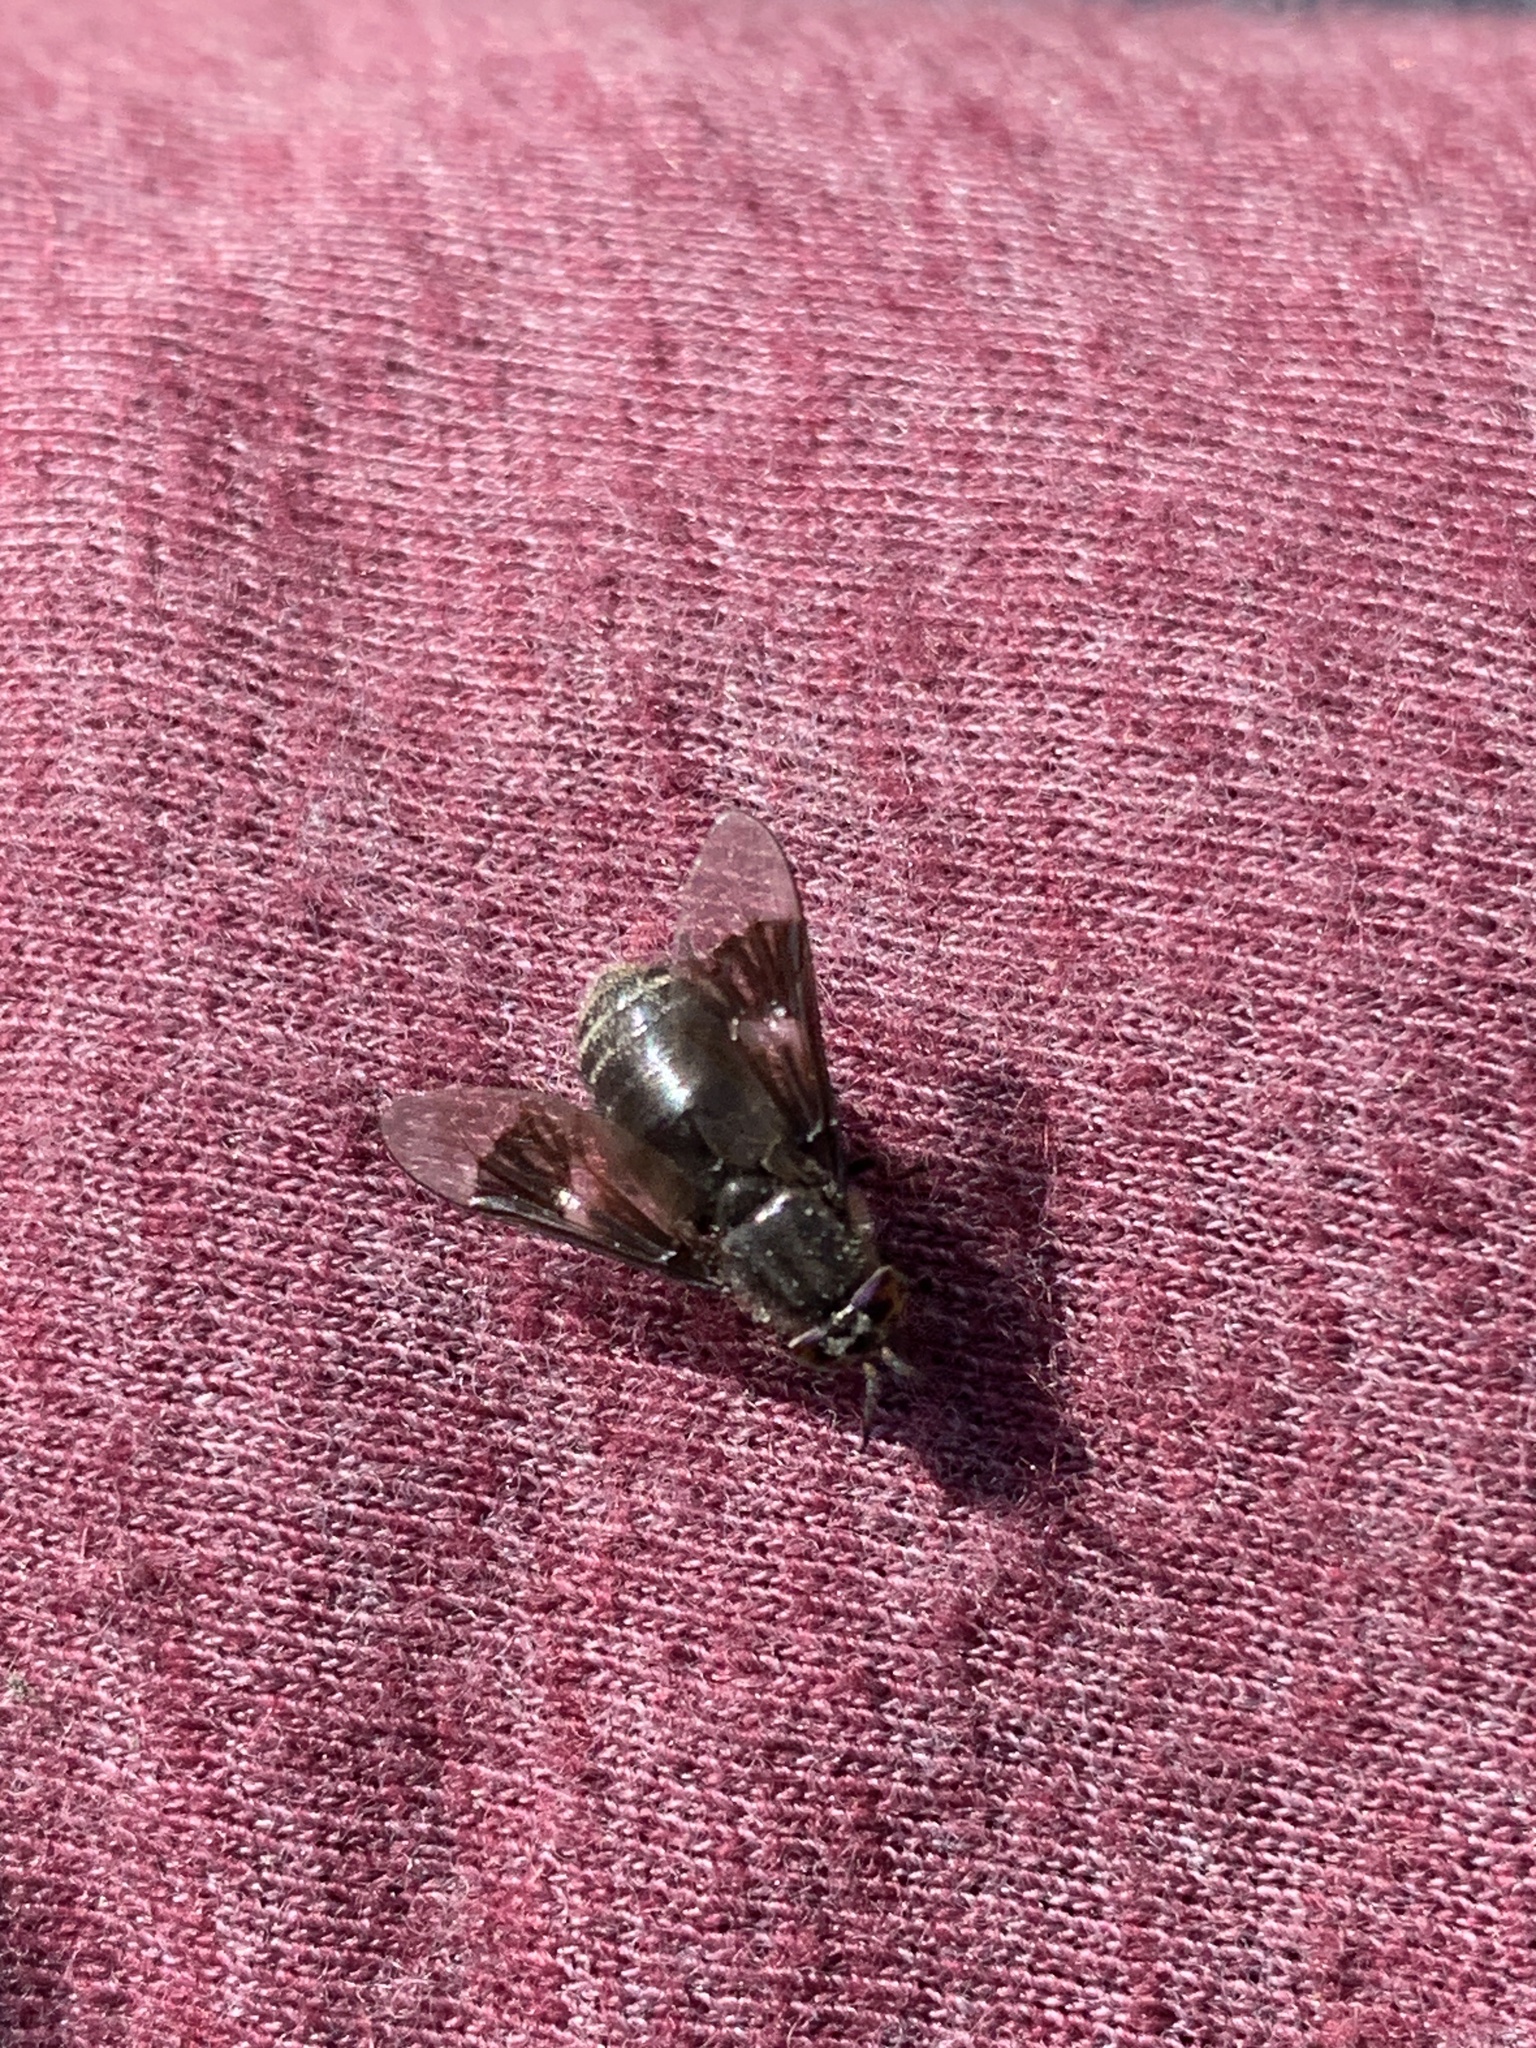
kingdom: Animalia
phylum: Arthropoda
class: Insecta
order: Diptera
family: Tabanidae
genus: Chrysops
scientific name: Chrysops ater
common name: Dark deer fly
